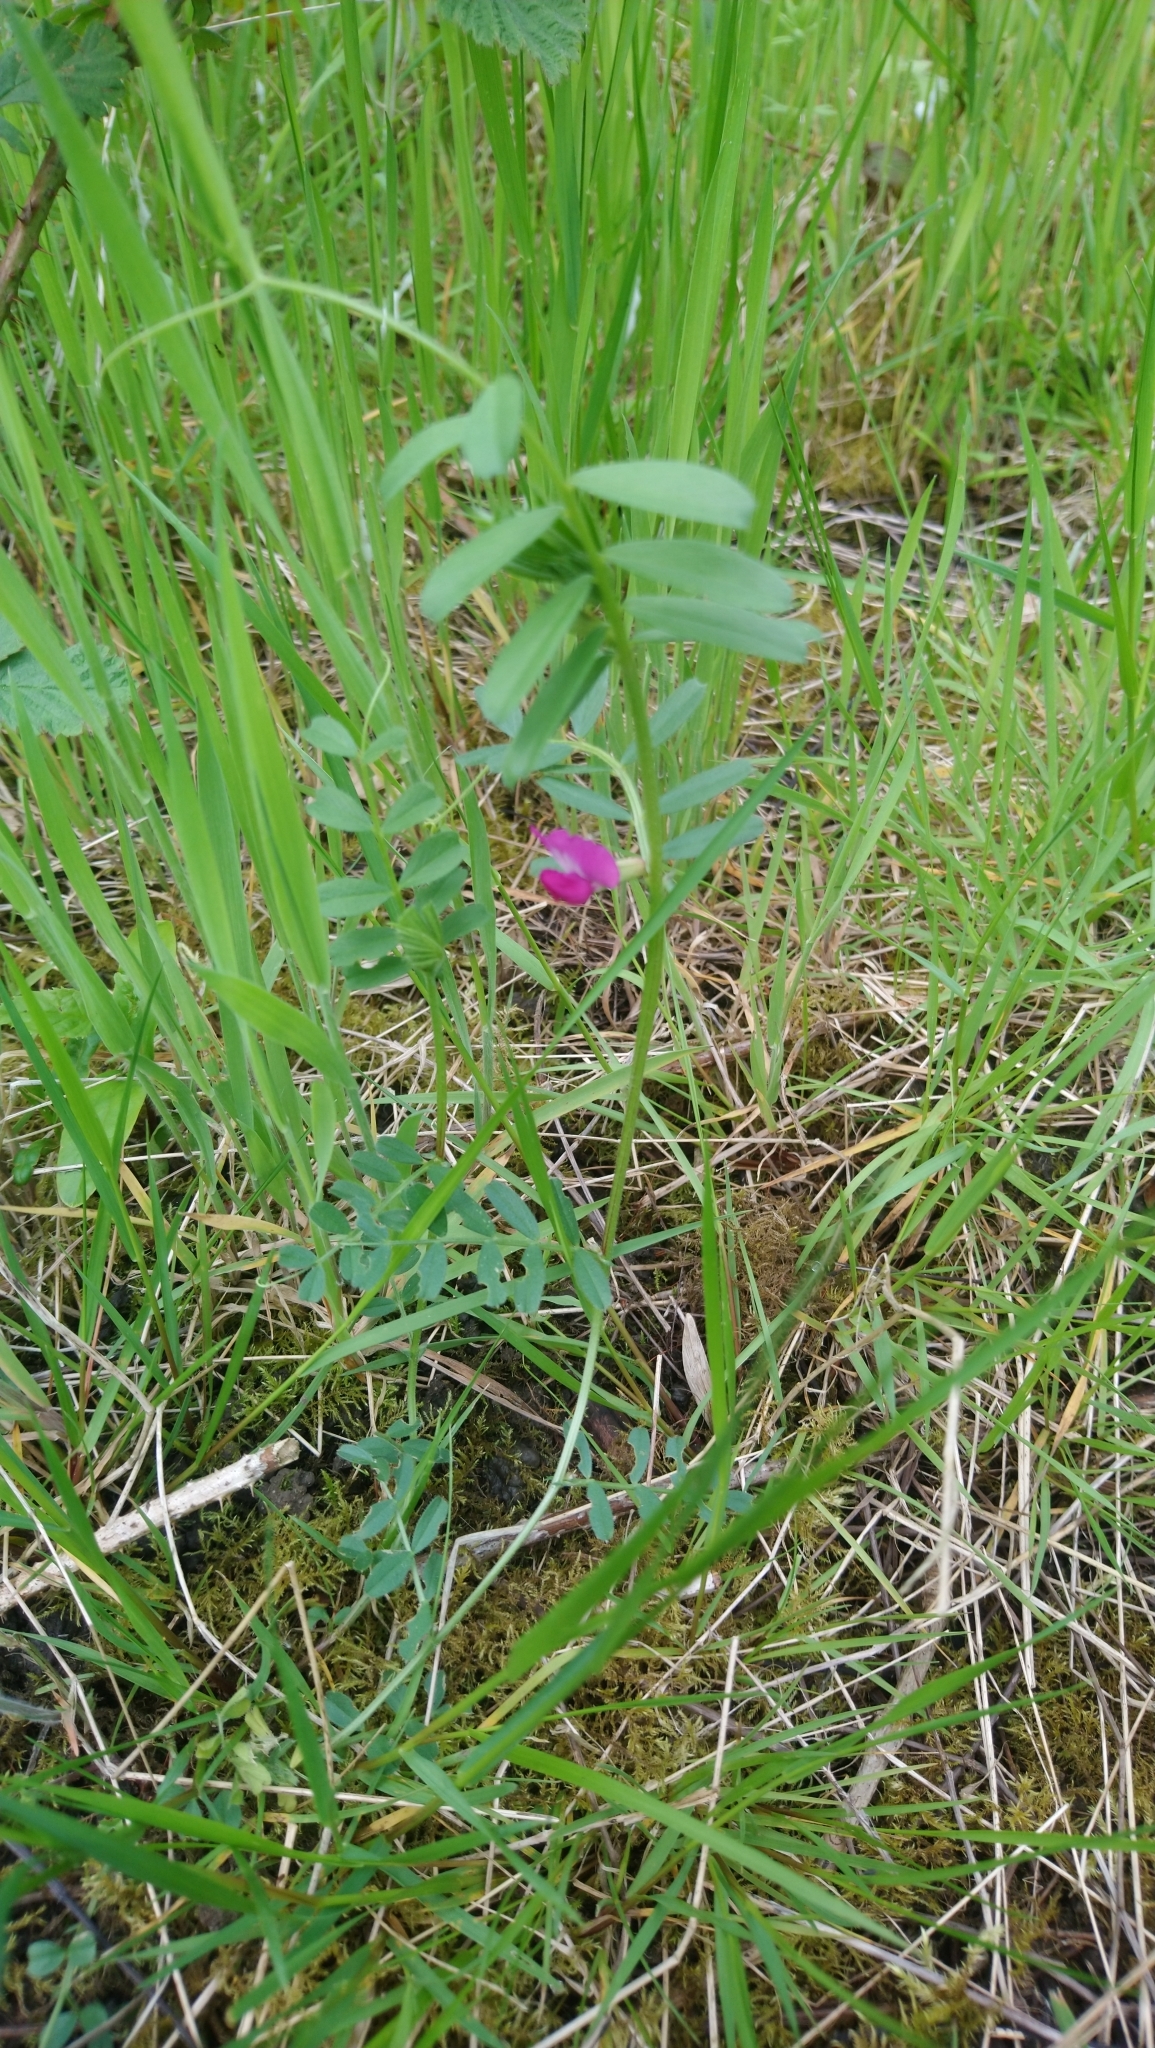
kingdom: Plantae
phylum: Tracheophyta
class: Magnoliopsida
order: Fabales
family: Fabaceae
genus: Vicia
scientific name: Vicia sativa
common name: Garden vetch
